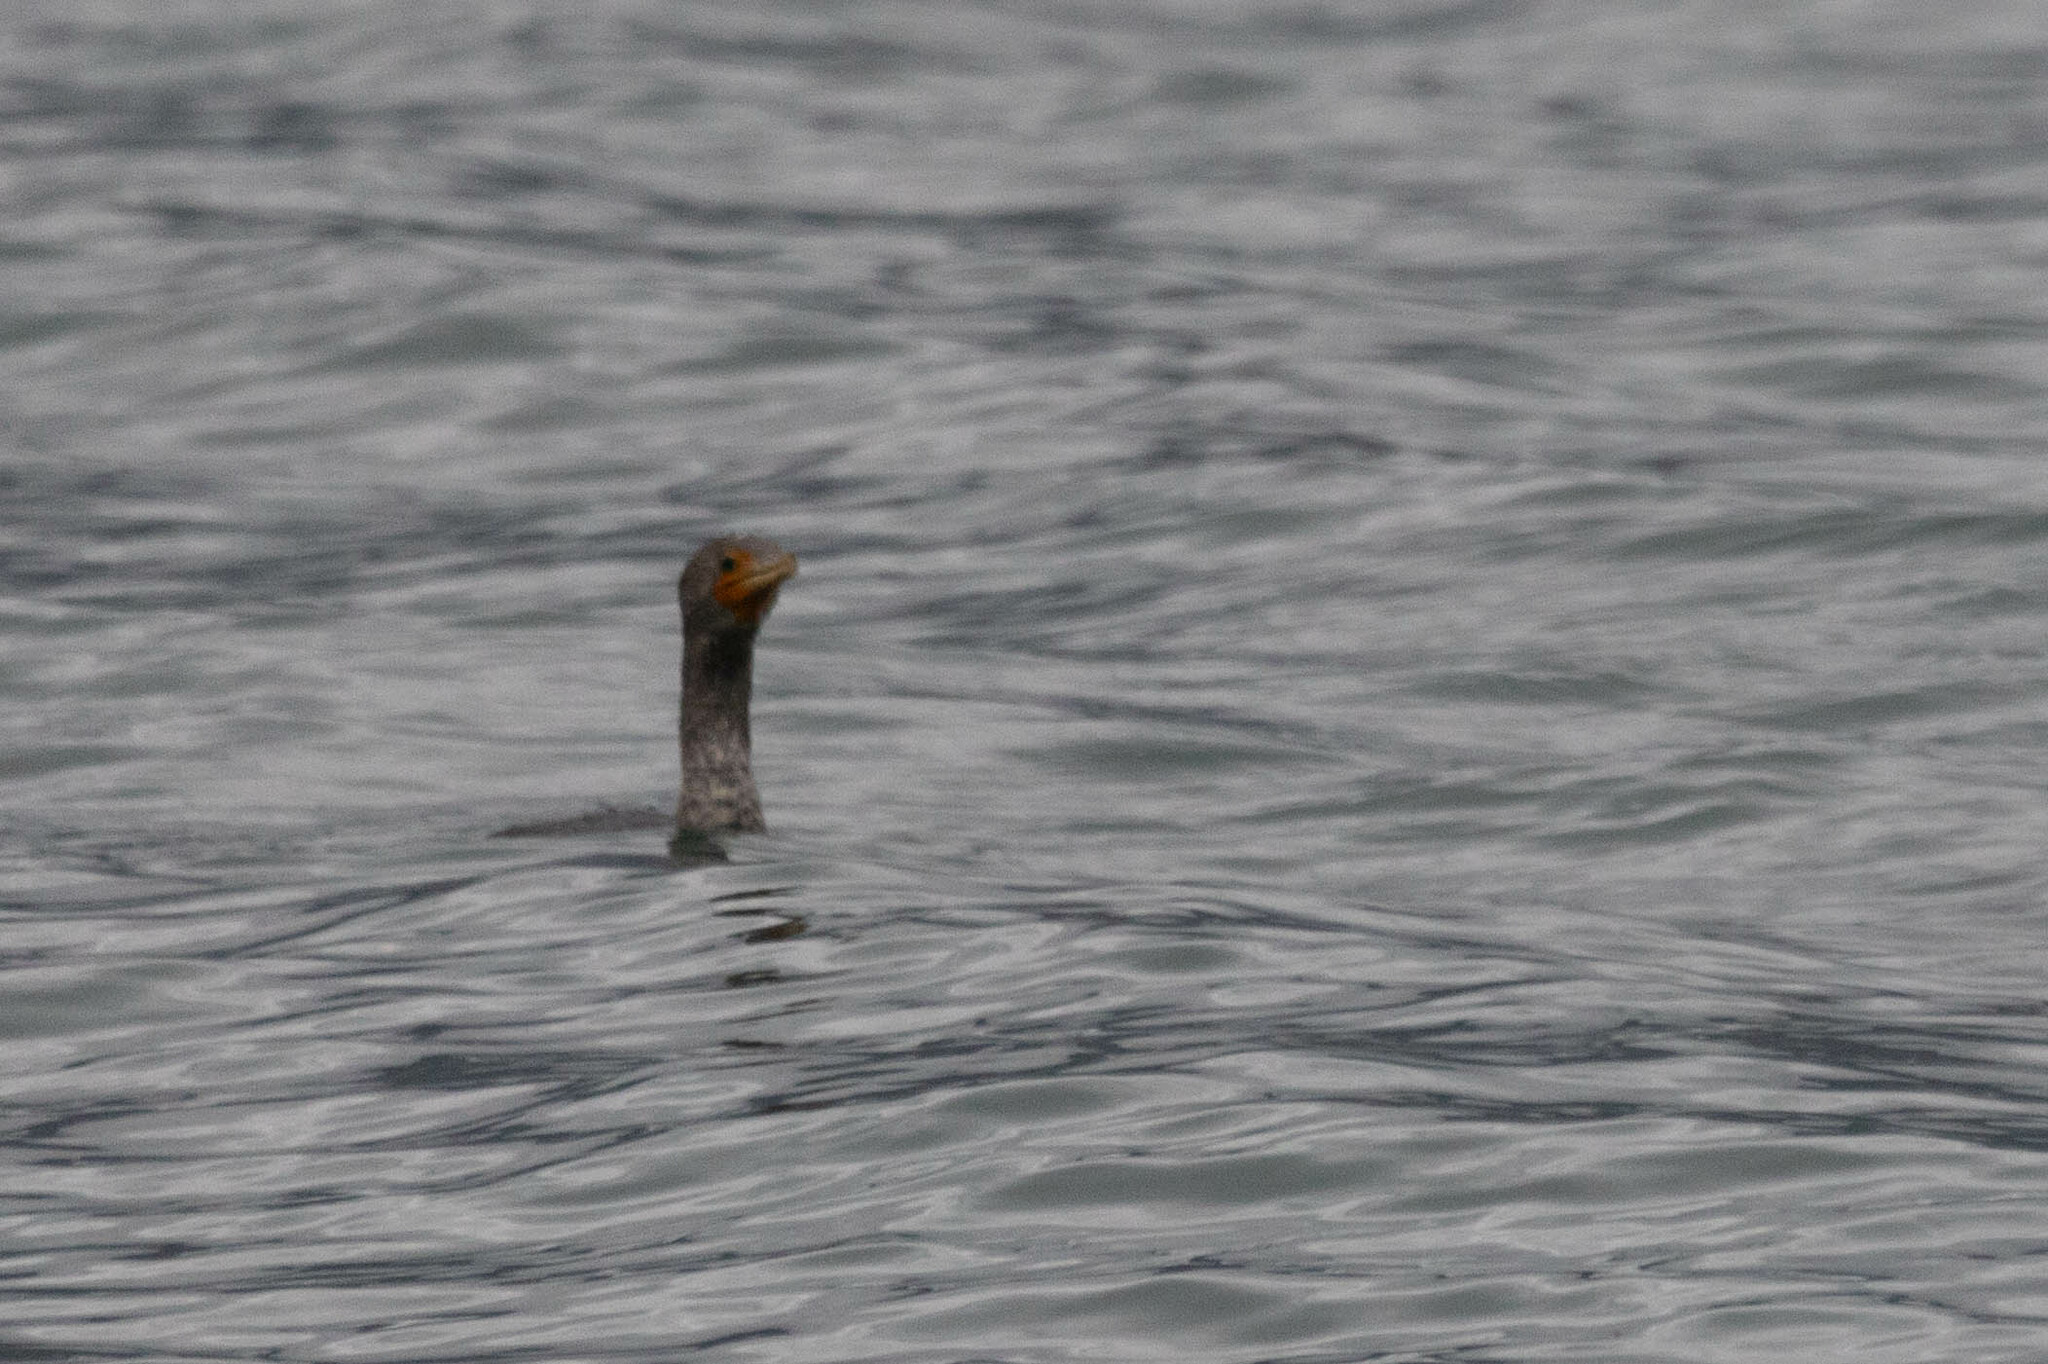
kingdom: Animalia
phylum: Chordata
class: Aves
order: Suliformes
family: Phalacrocoracidae
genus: Phalacrocorax
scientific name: Phalacrocorax auritus
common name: Double-crested cormorant
